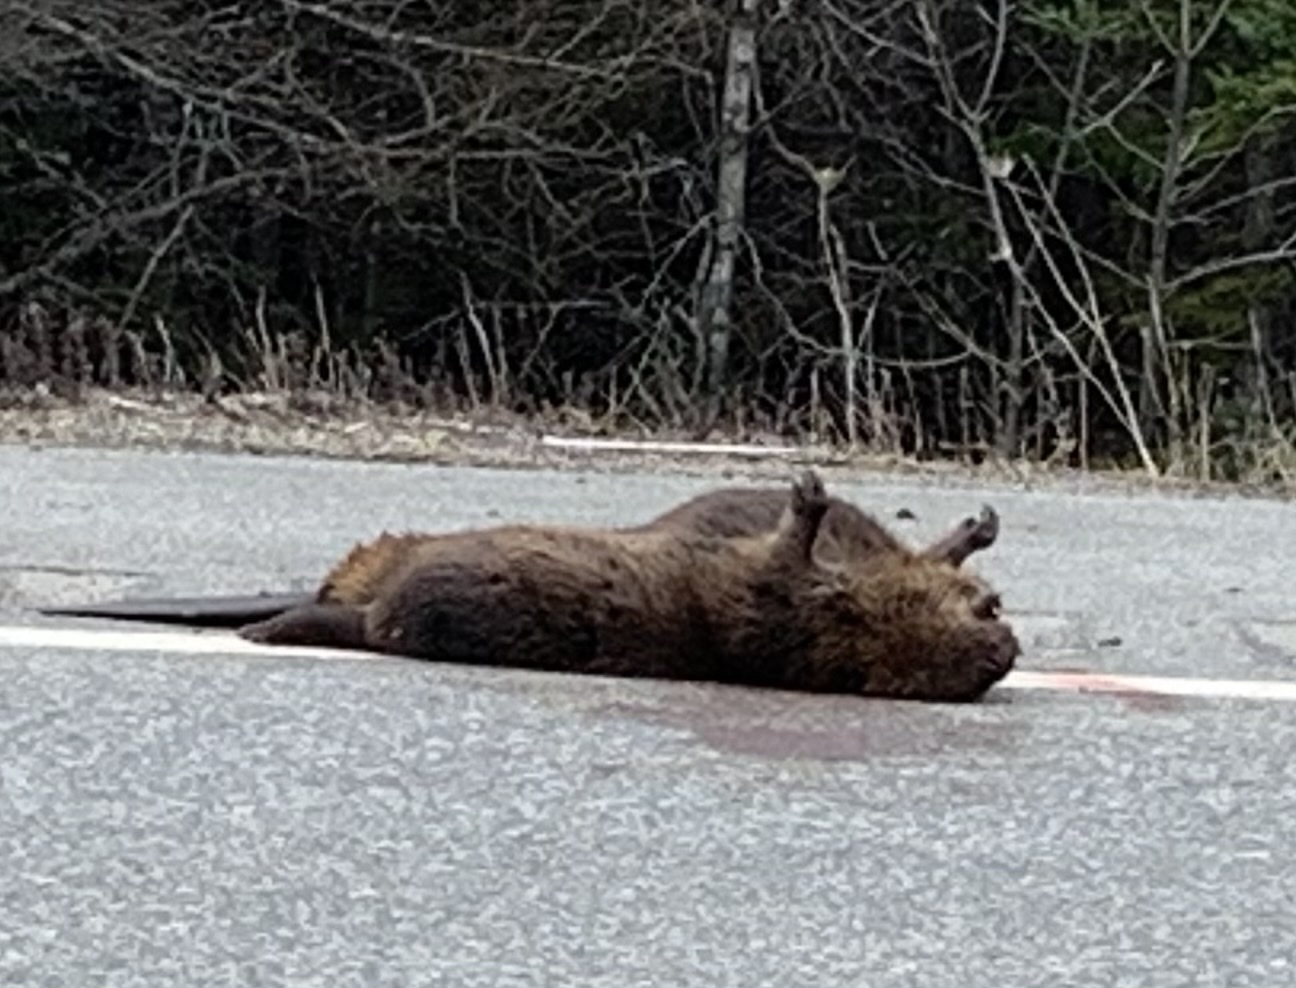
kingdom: Animalia
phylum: Chordata
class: Mammalia
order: Rodentia
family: Castoridae
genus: Castor
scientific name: Castor canadensis
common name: American beaver
